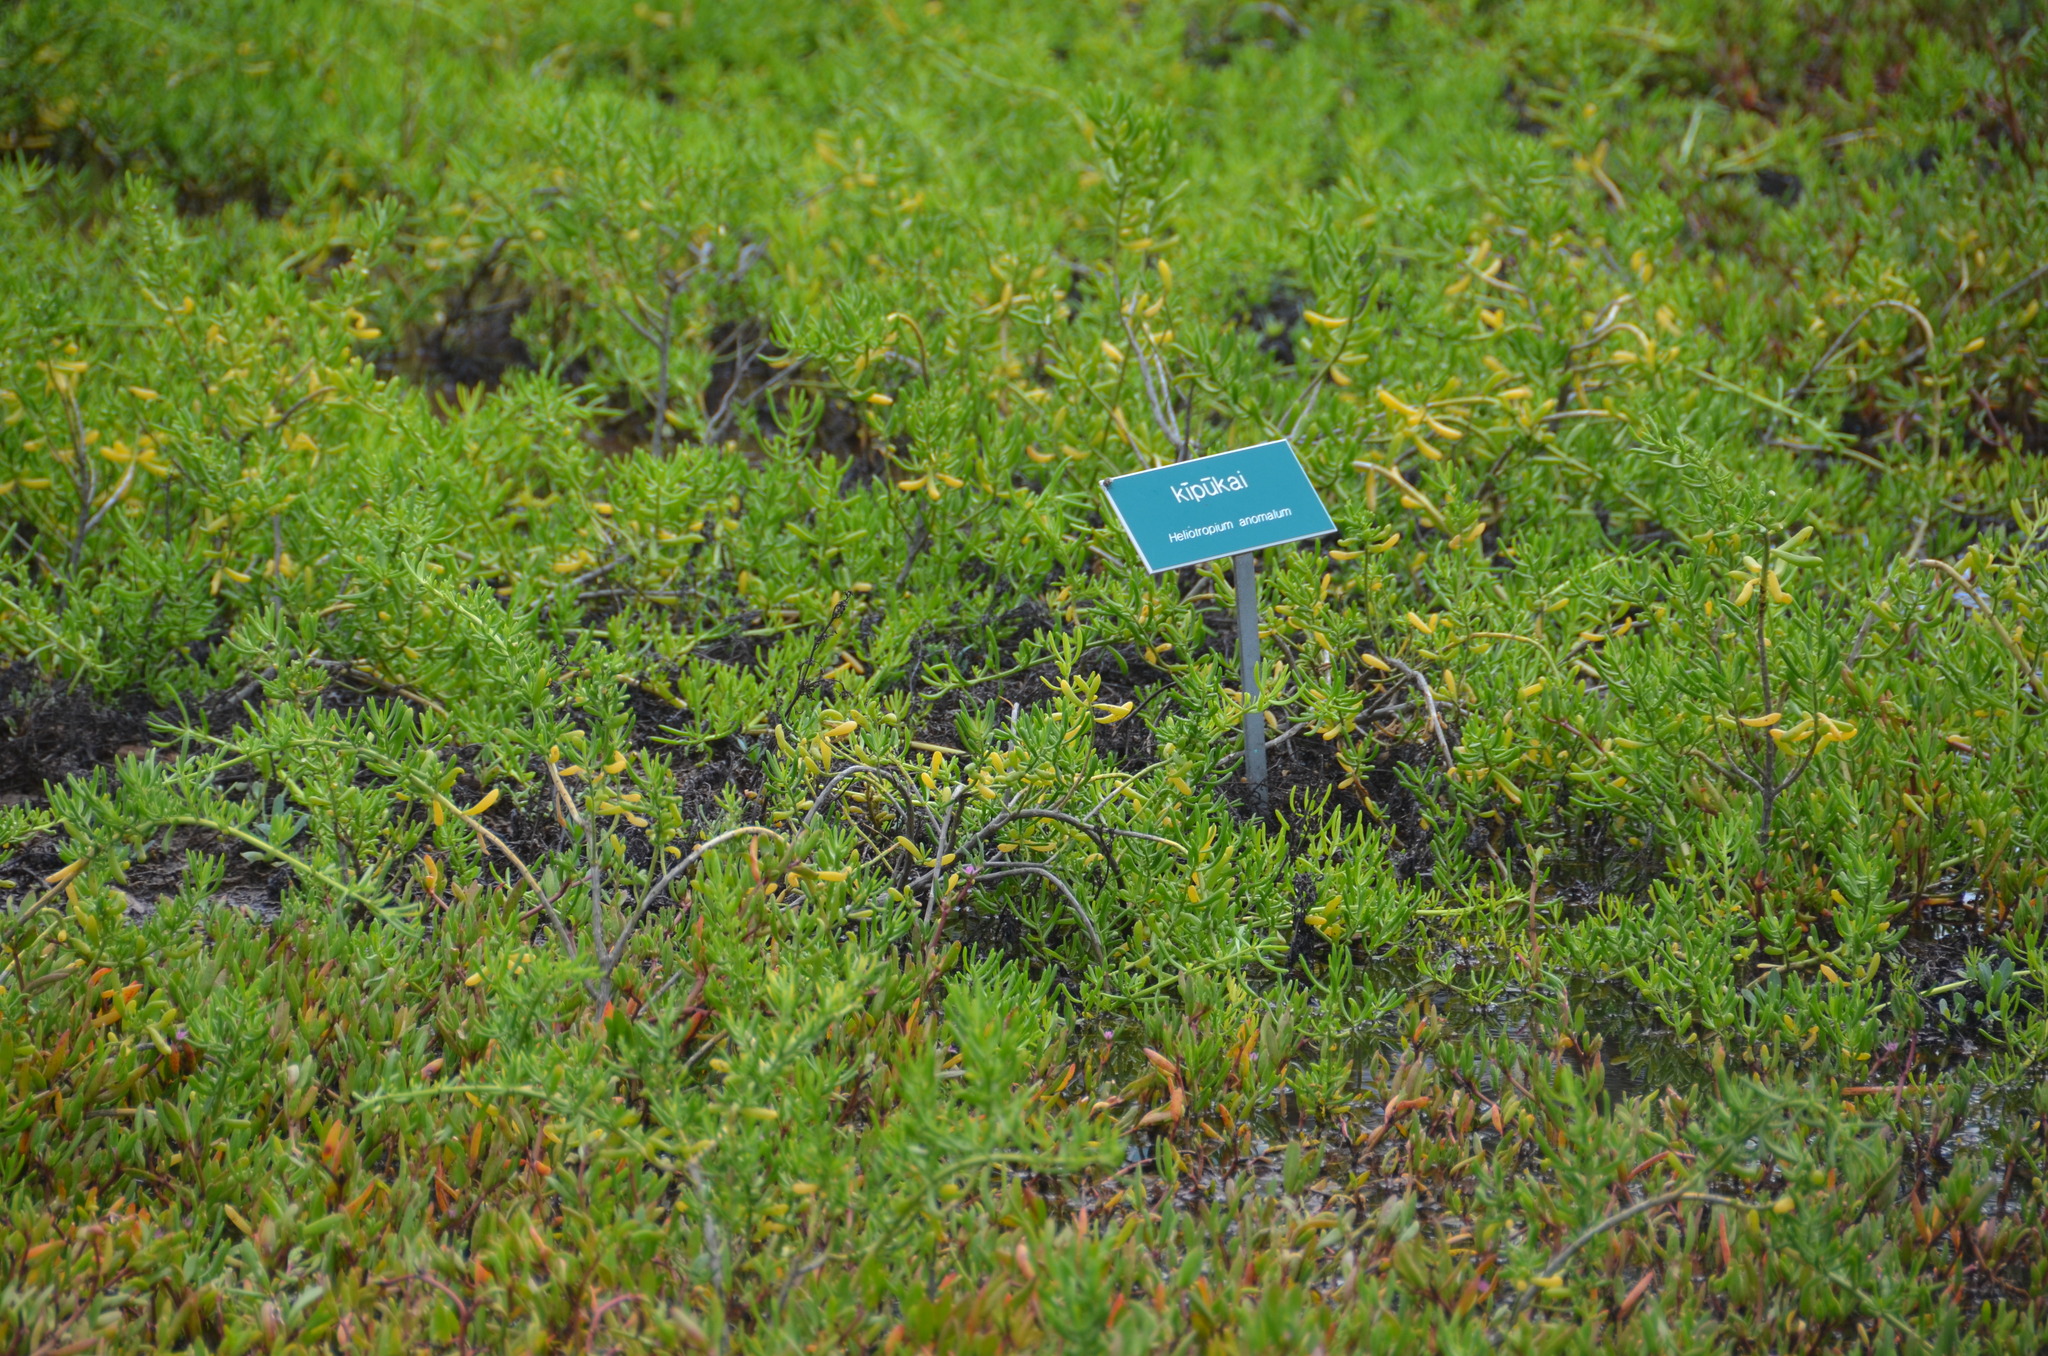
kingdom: Plantae
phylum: Tracheophyta
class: Magnoliopsida
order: Brassicales
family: Bataceae
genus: Batis
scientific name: Batis maritima
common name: Turtleweed
